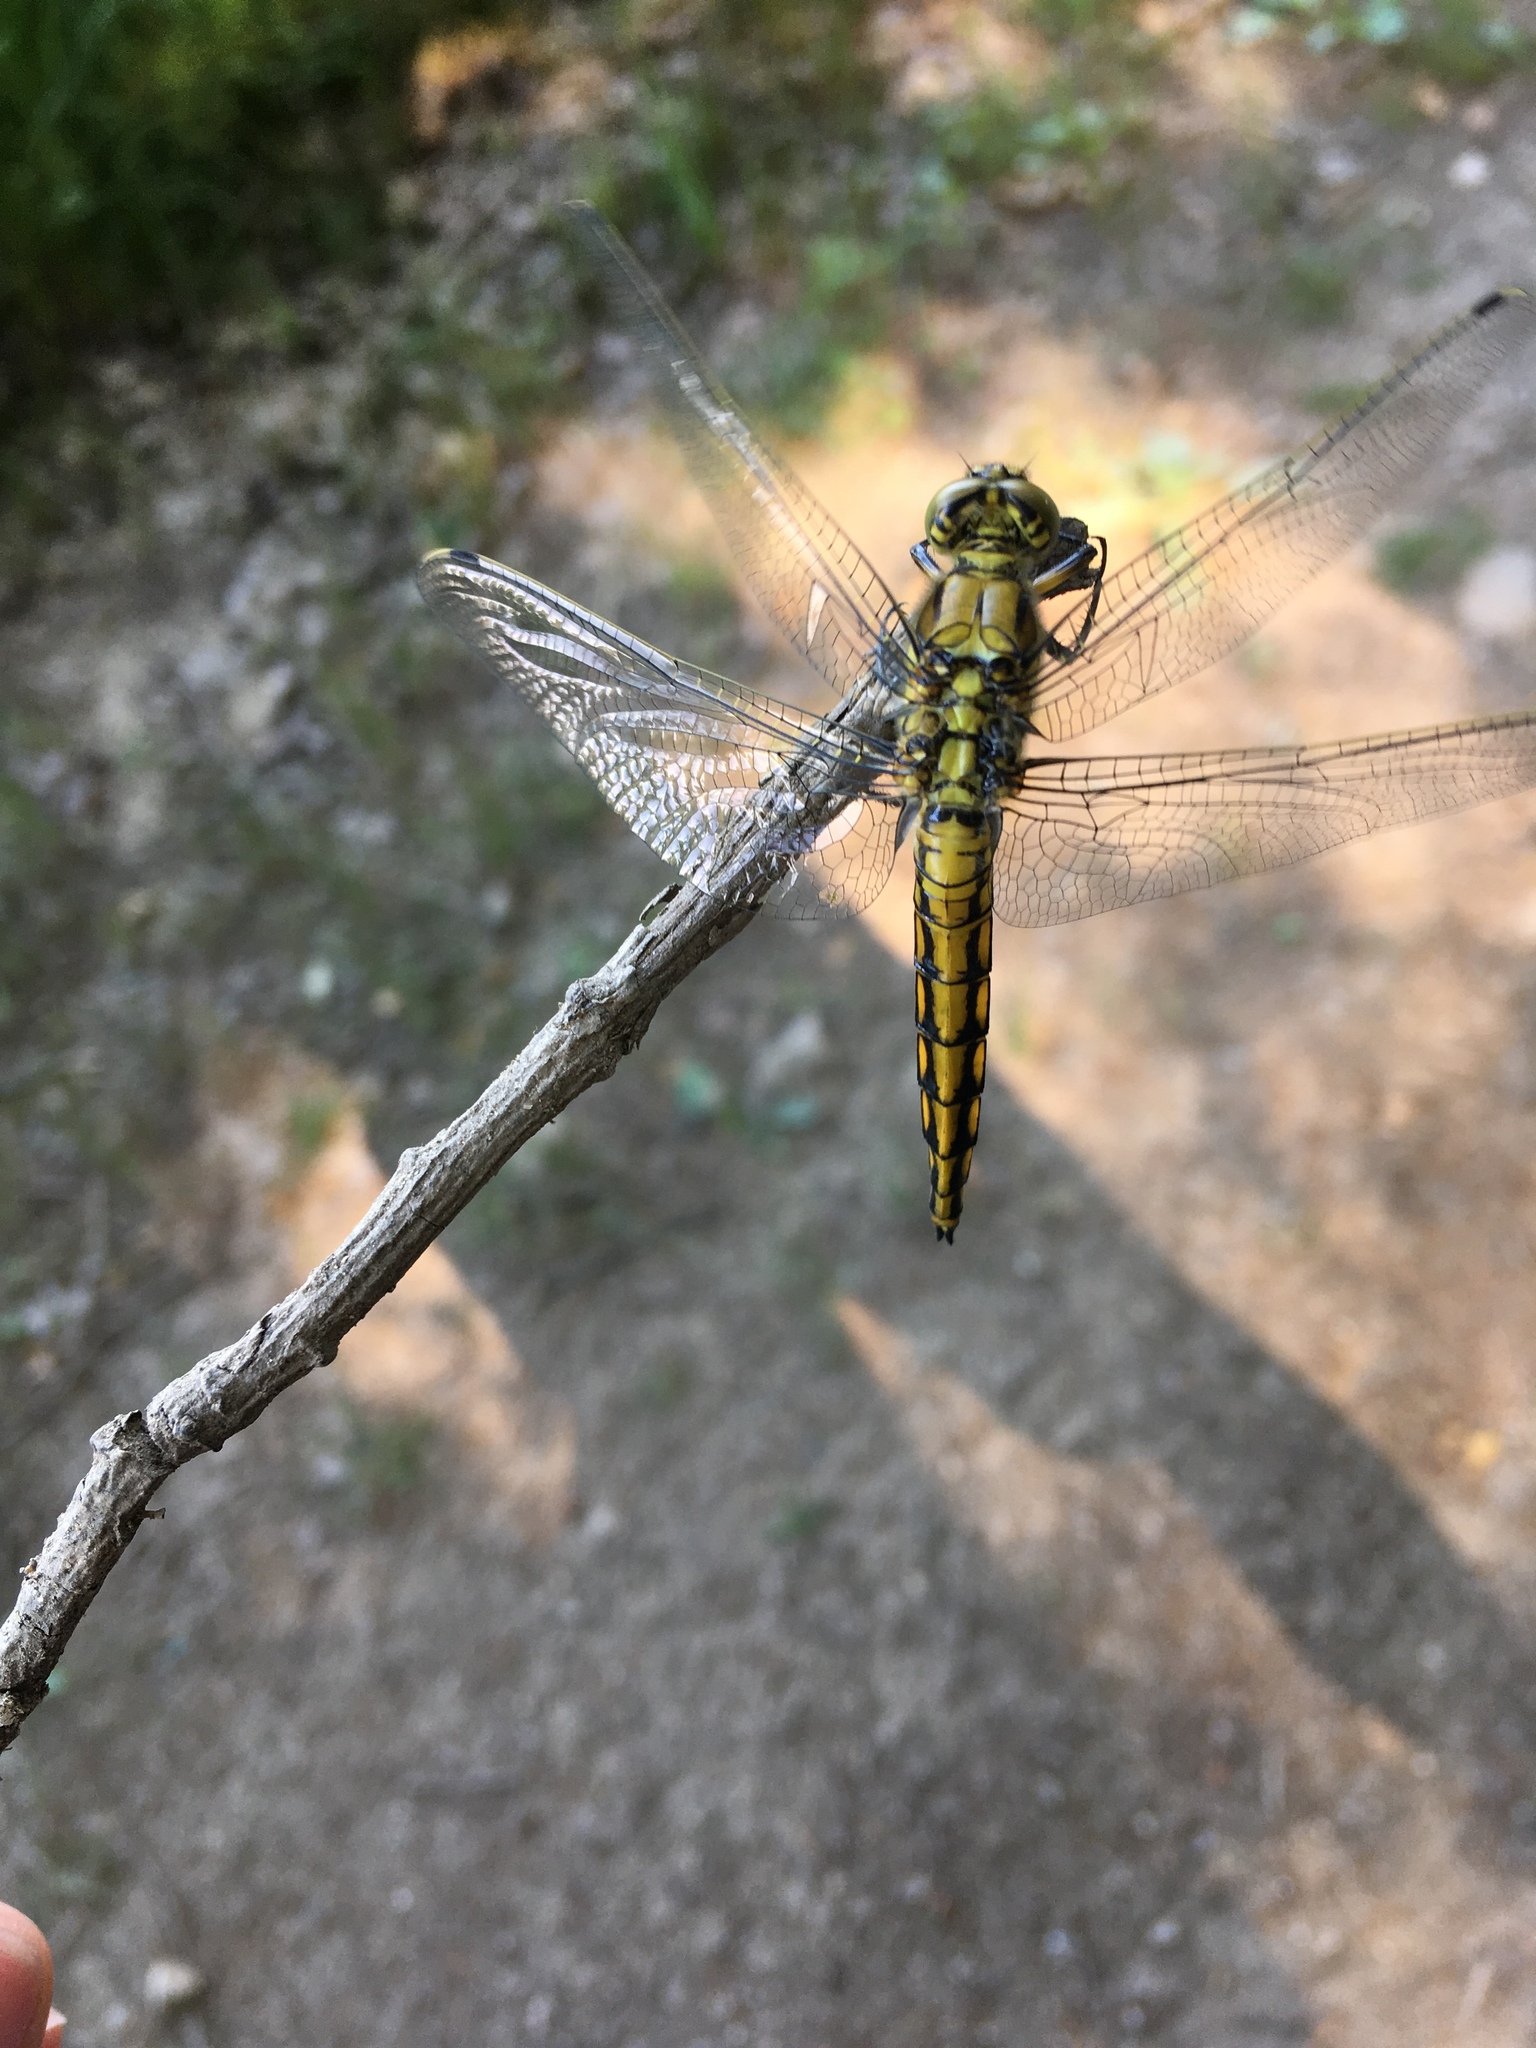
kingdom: Animalia
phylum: Arthropoda
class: Insecta
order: Odonata
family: Libellulidae
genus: Orthetrum
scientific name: Orthetrum cancellatum
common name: Black-tailed skimmer
